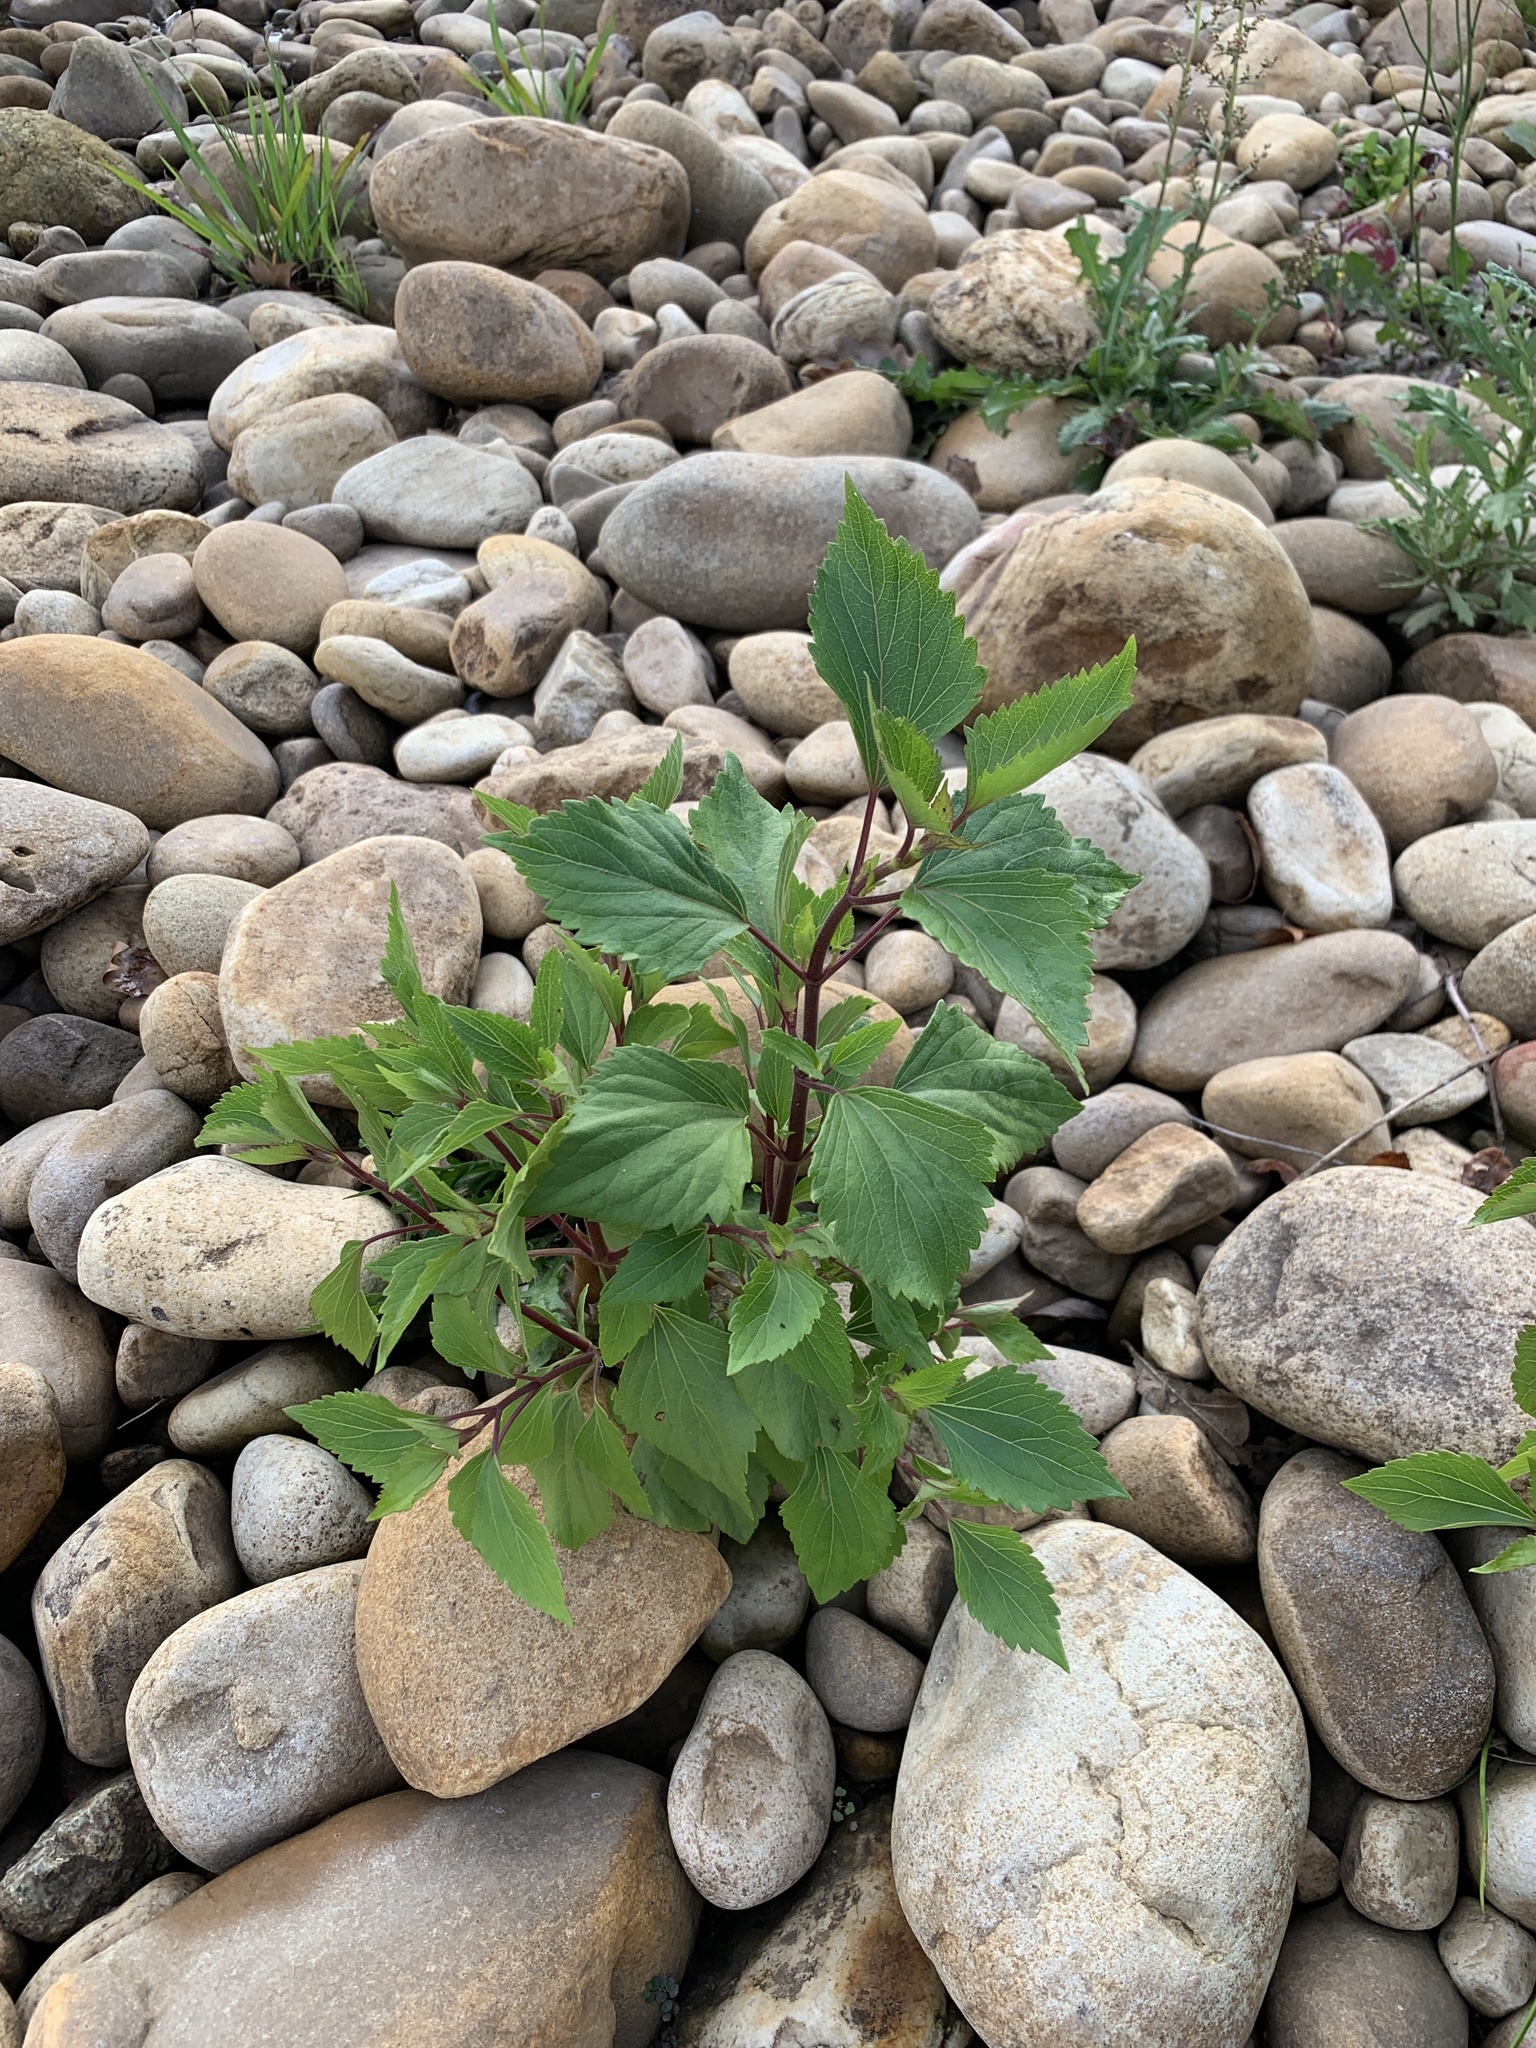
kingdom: Plantae
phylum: Tracheophyta
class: Magnoliopsida
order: Asterales
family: Asteraceae
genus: Ageratina
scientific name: Ageratina adenophora
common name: Sticky snakeroot
